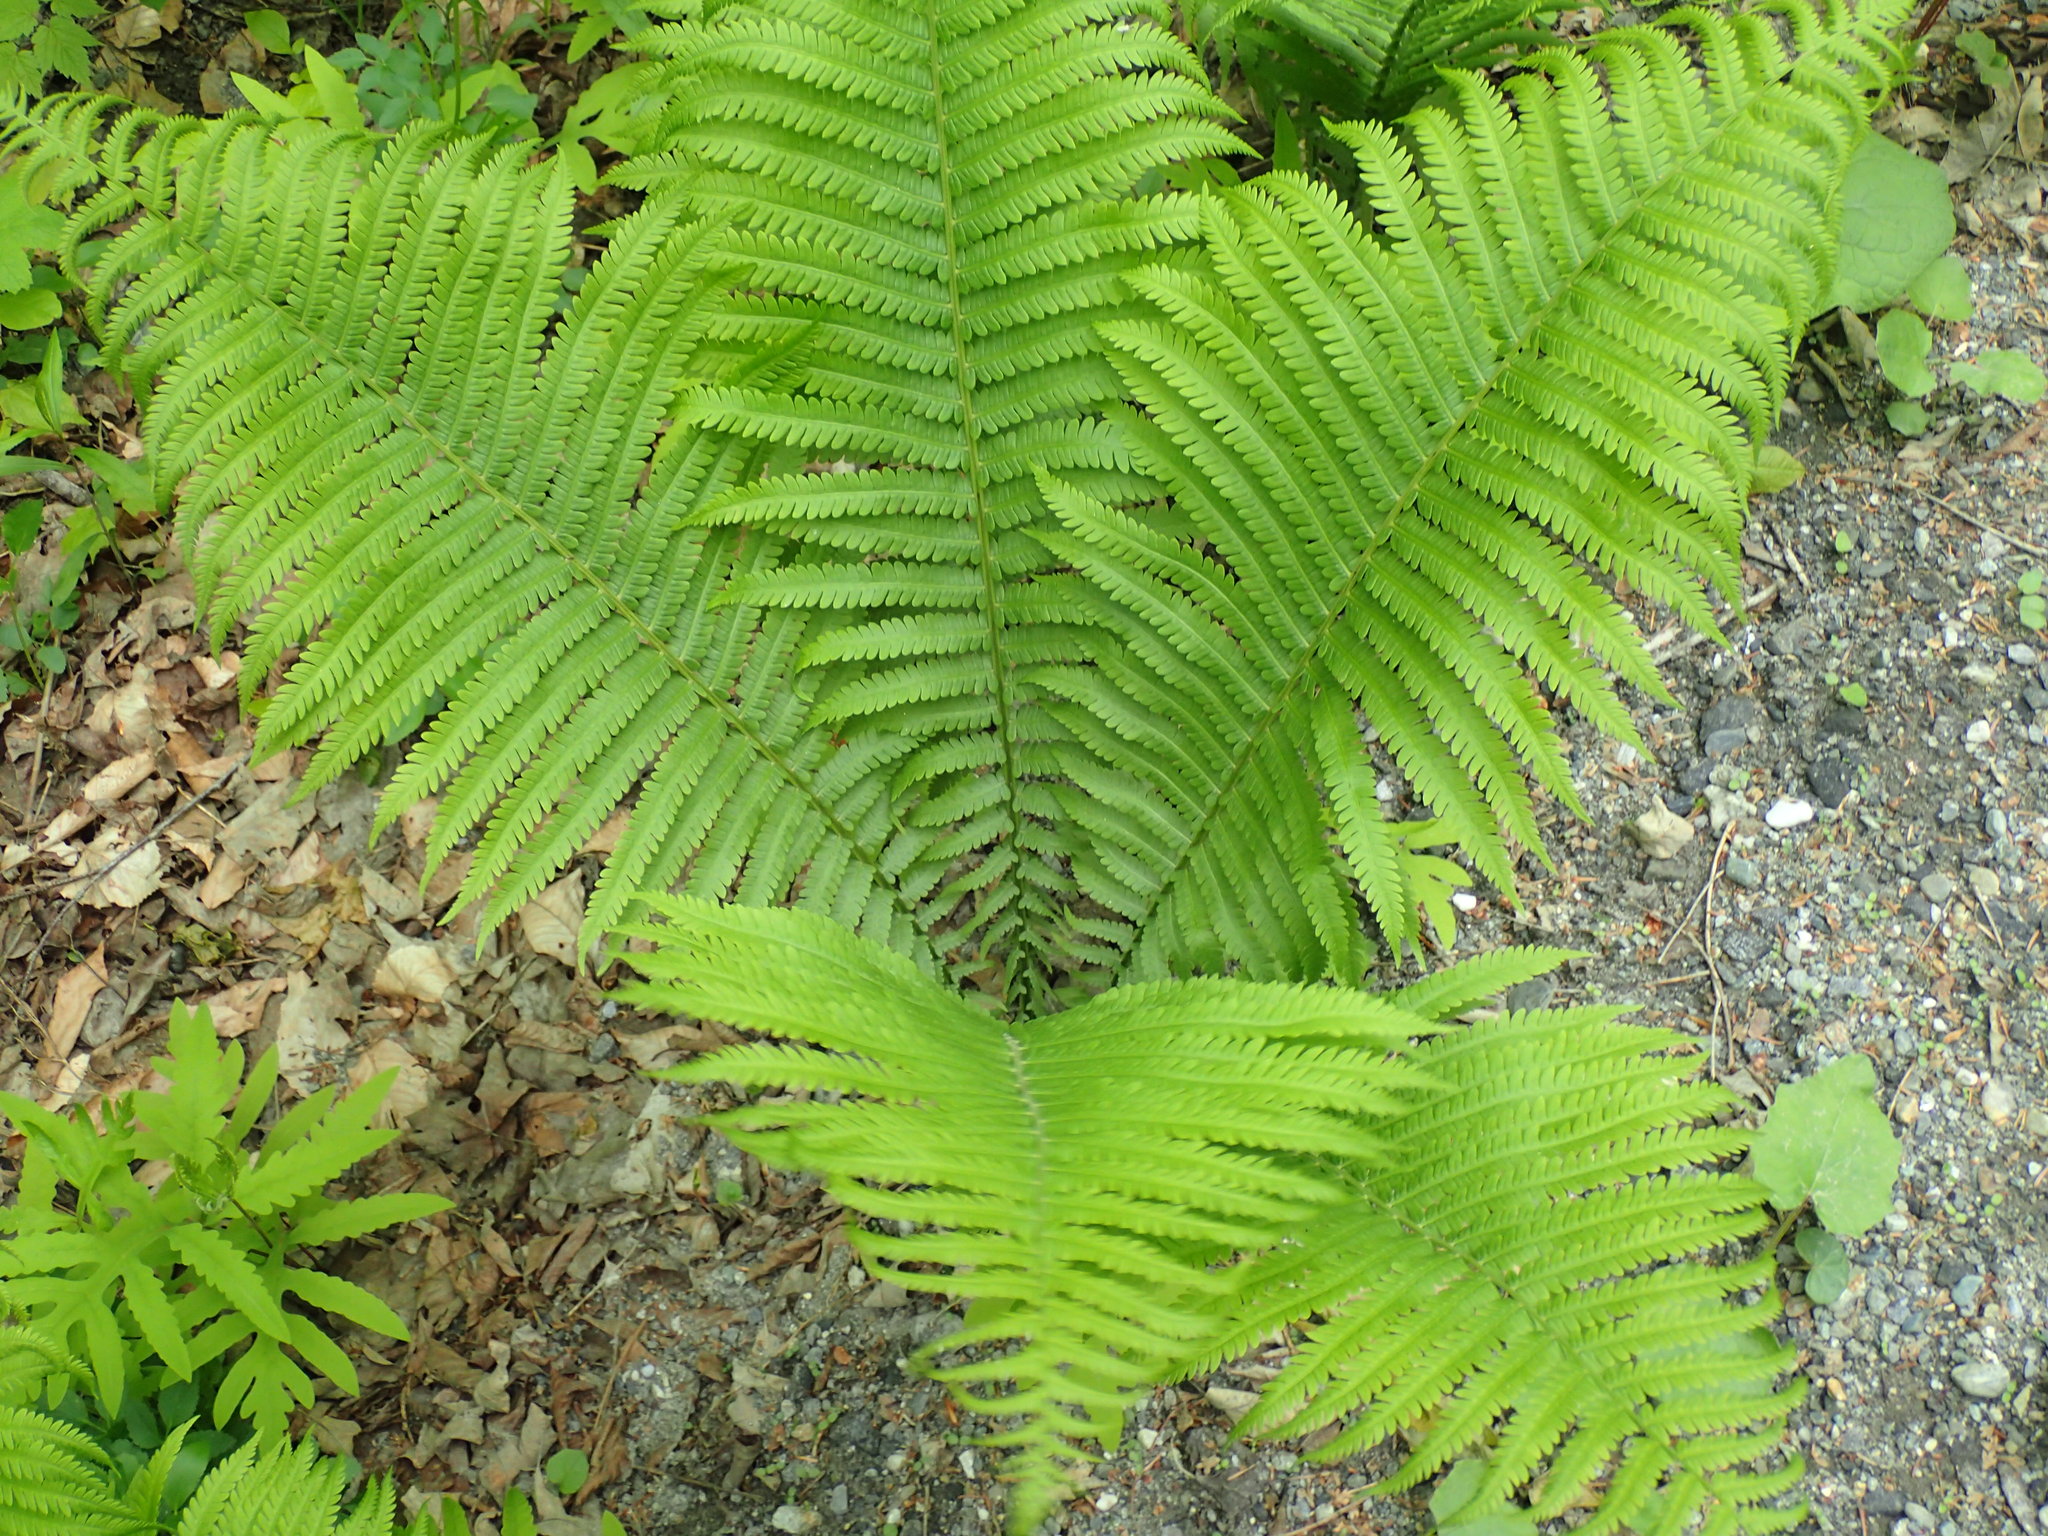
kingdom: Plantae
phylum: Tracheophyta
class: Polypodiopsida
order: Polypodiales
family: Onocleaceae
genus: Matteuccia
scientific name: Matteuccia struthiopteris
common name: Ostrich fern
